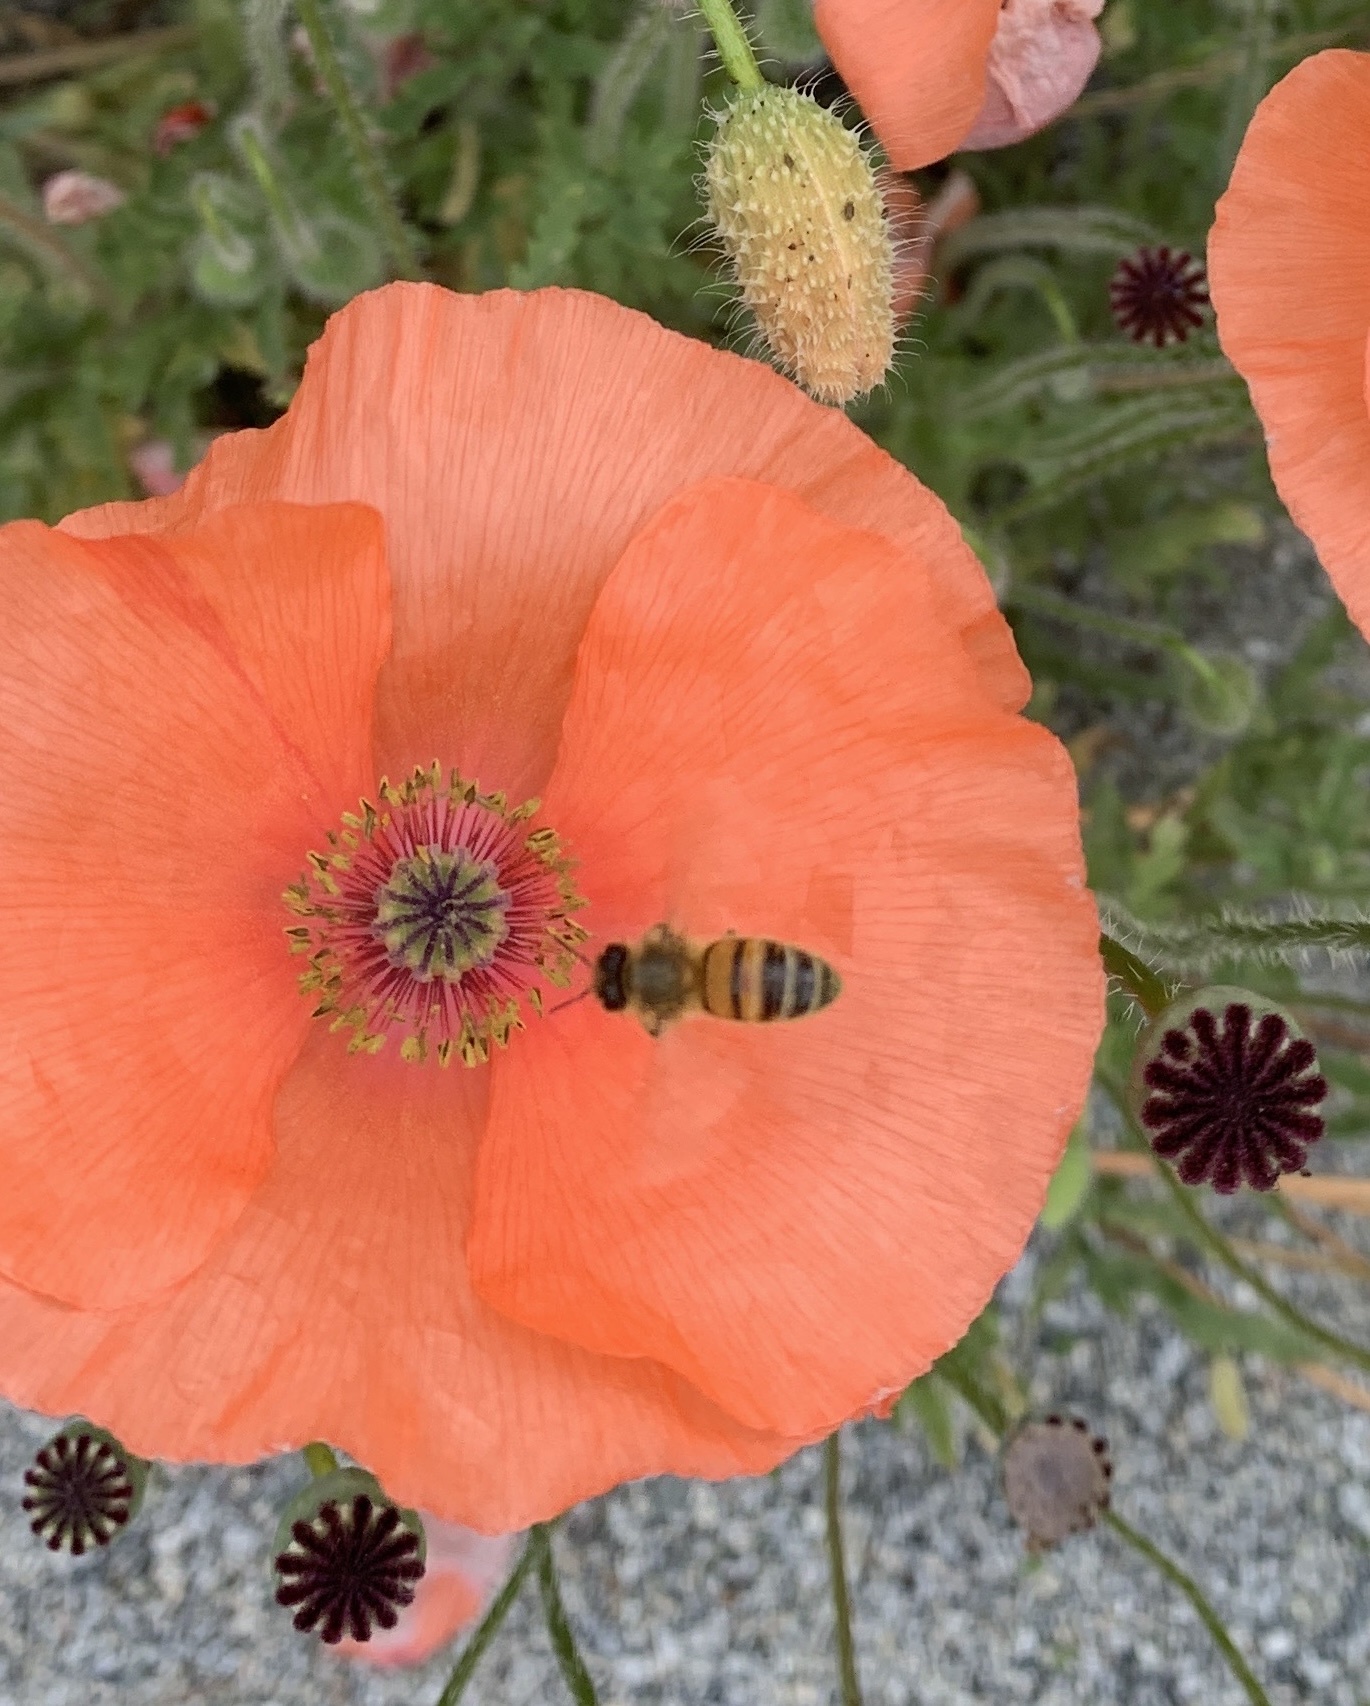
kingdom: Animalia
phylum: Arthropoda
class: Insecta
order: Hymenoptera
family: Apidae
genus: Apis
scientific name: Apis mellifera
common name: Honey bee
